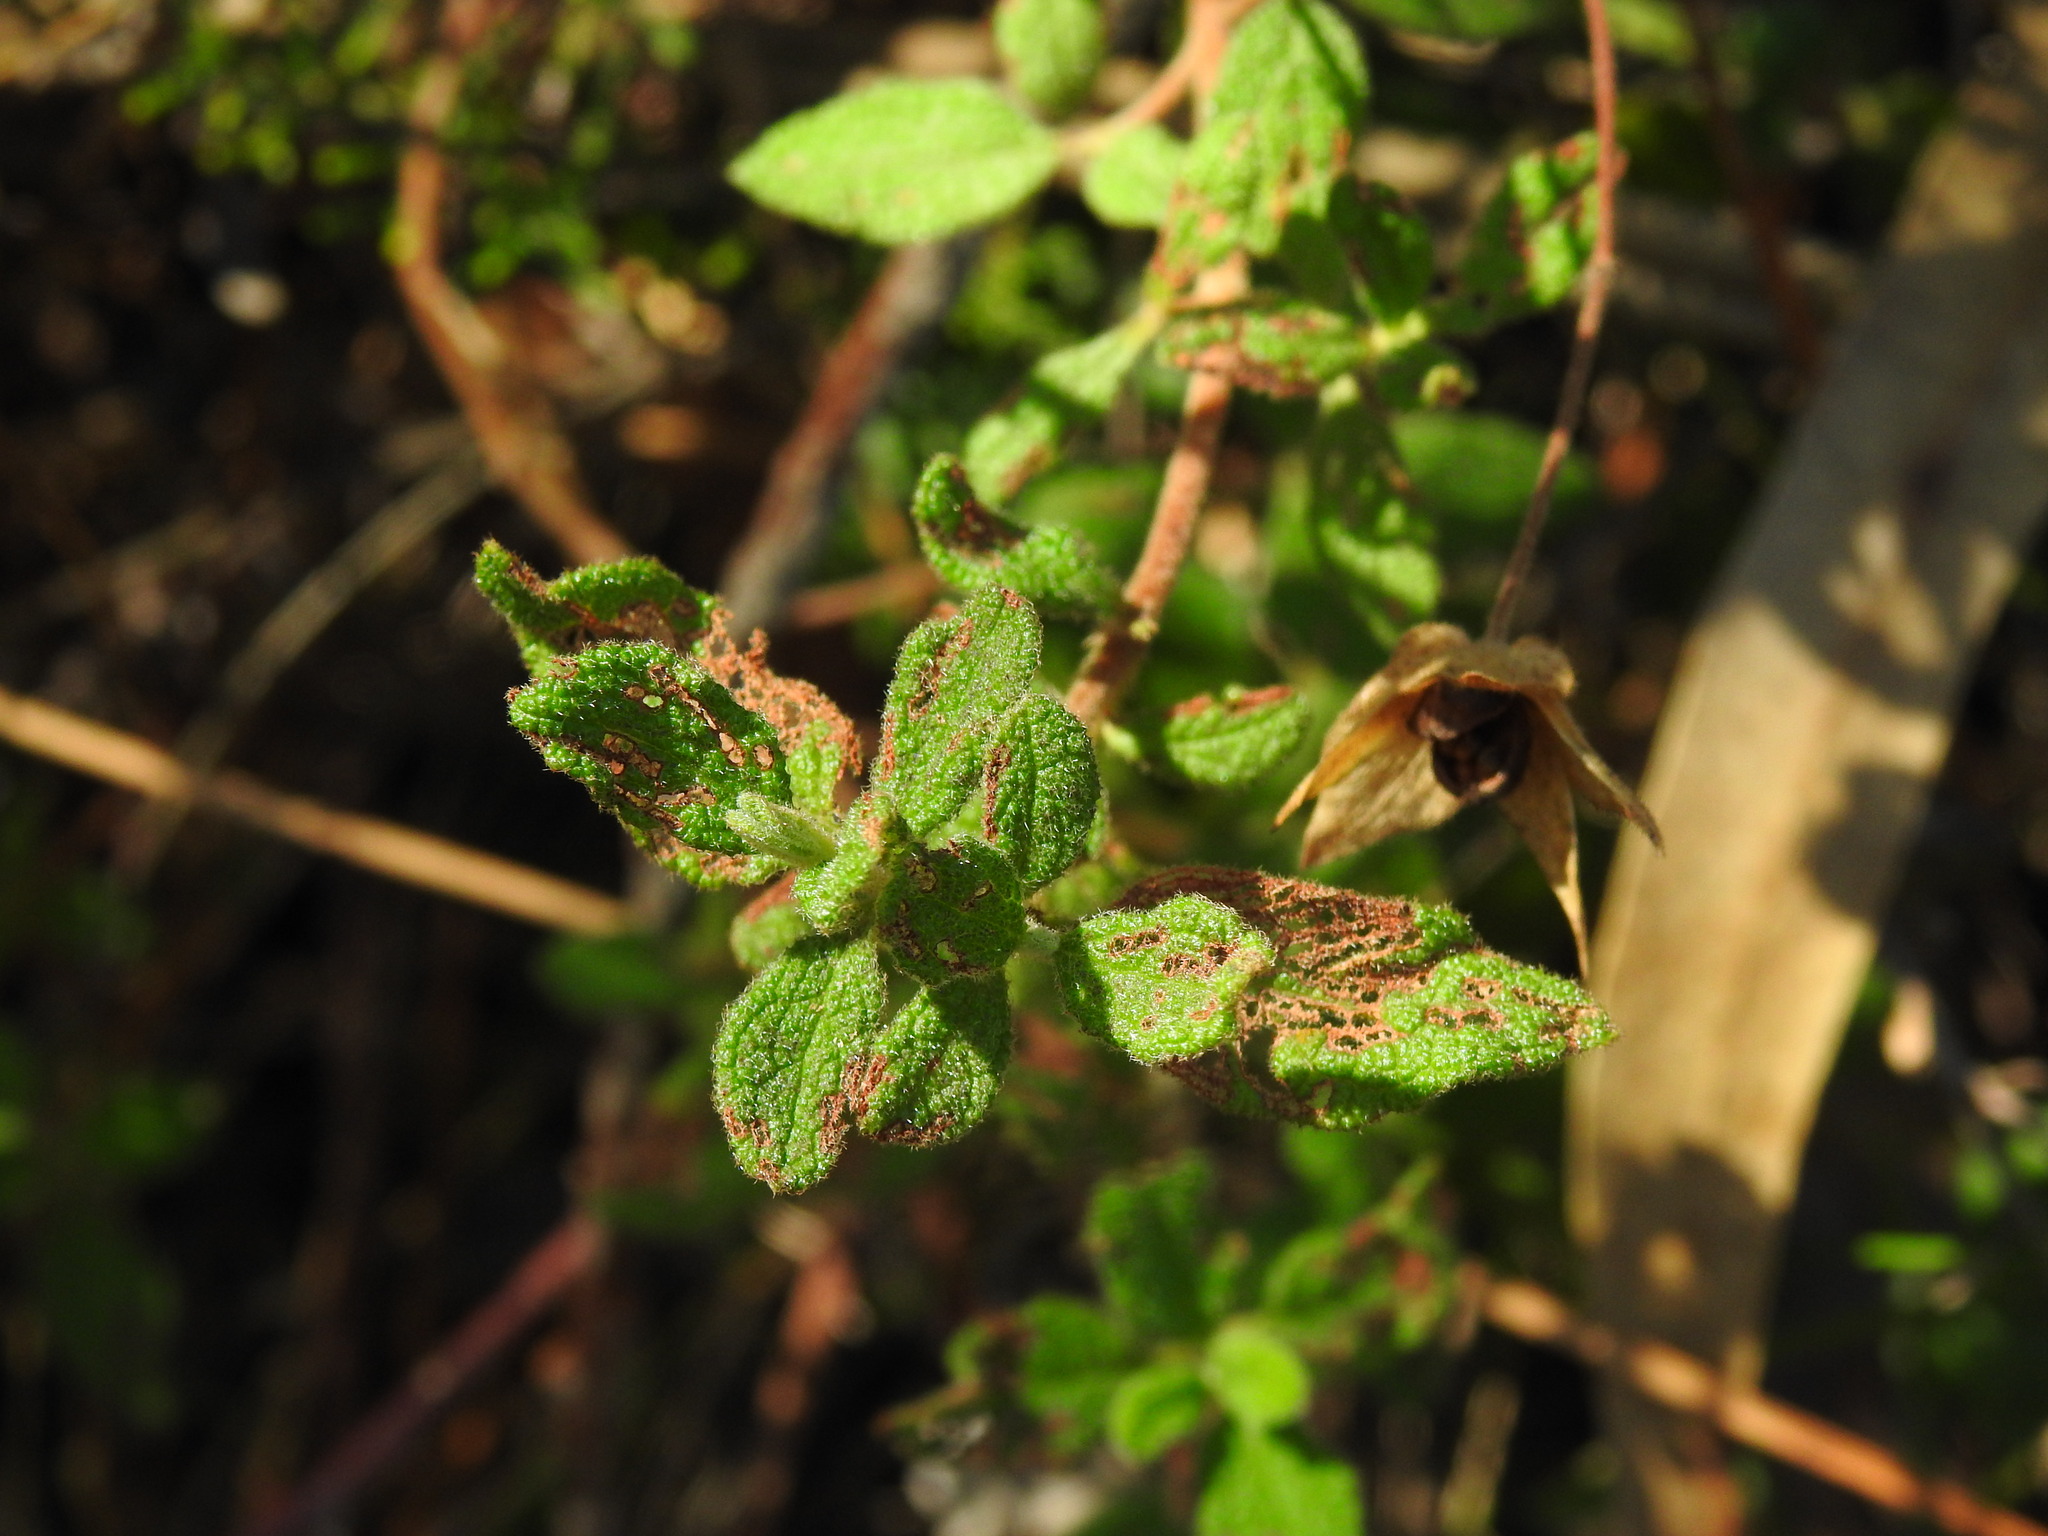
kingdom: Plantae
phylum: Tracheophyta
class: Magnoliopsida
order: Malvales
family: Cistaceae
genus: Cistus
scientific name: Cistus salviifolius
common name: Salvia cistus
